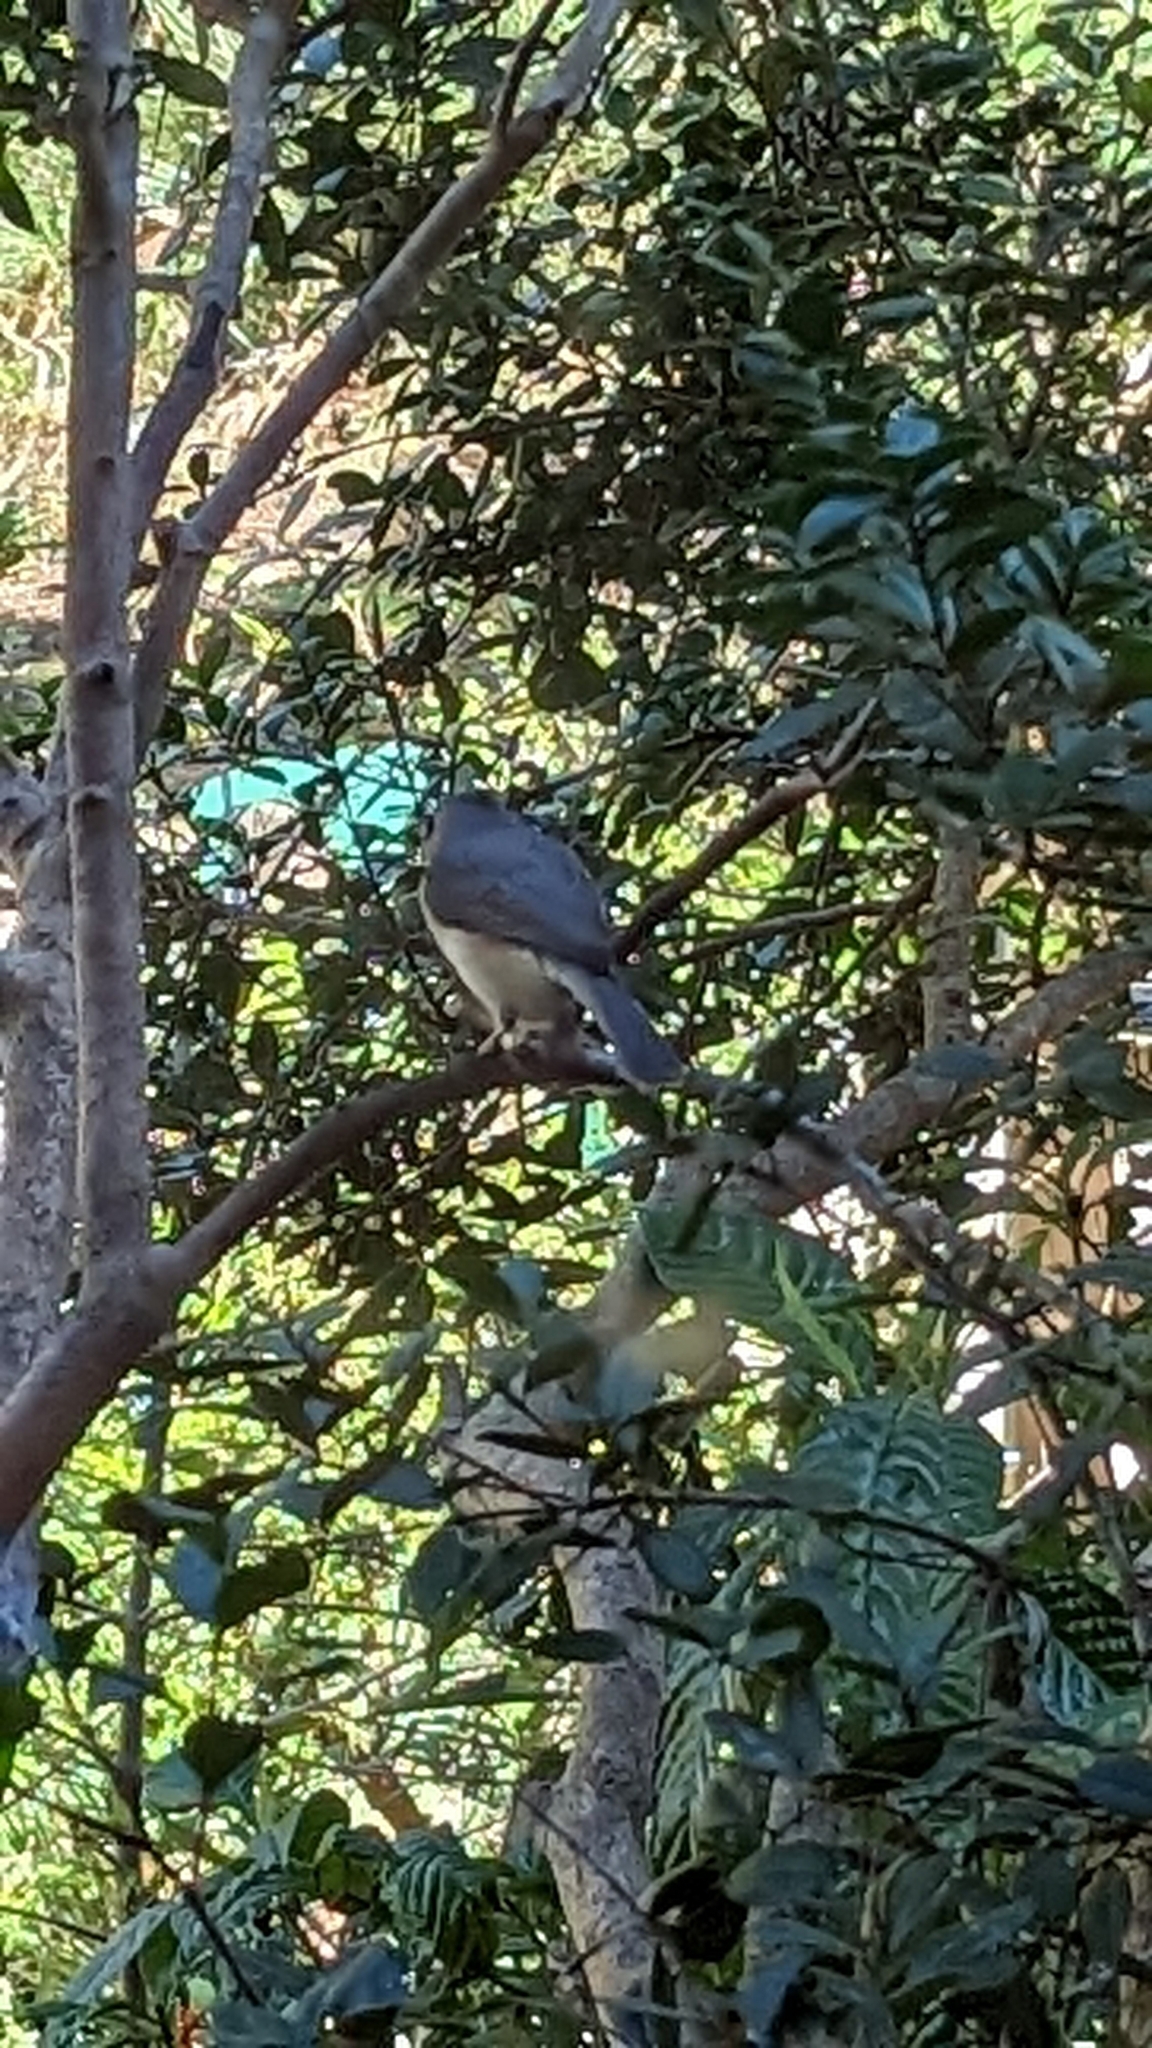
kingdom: Animalia
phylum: Chordata
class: Aves
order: Passeriformes
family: Paridae
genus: Baeolophus
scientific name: Baeolophus bicolor
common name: Tufted titmouse
